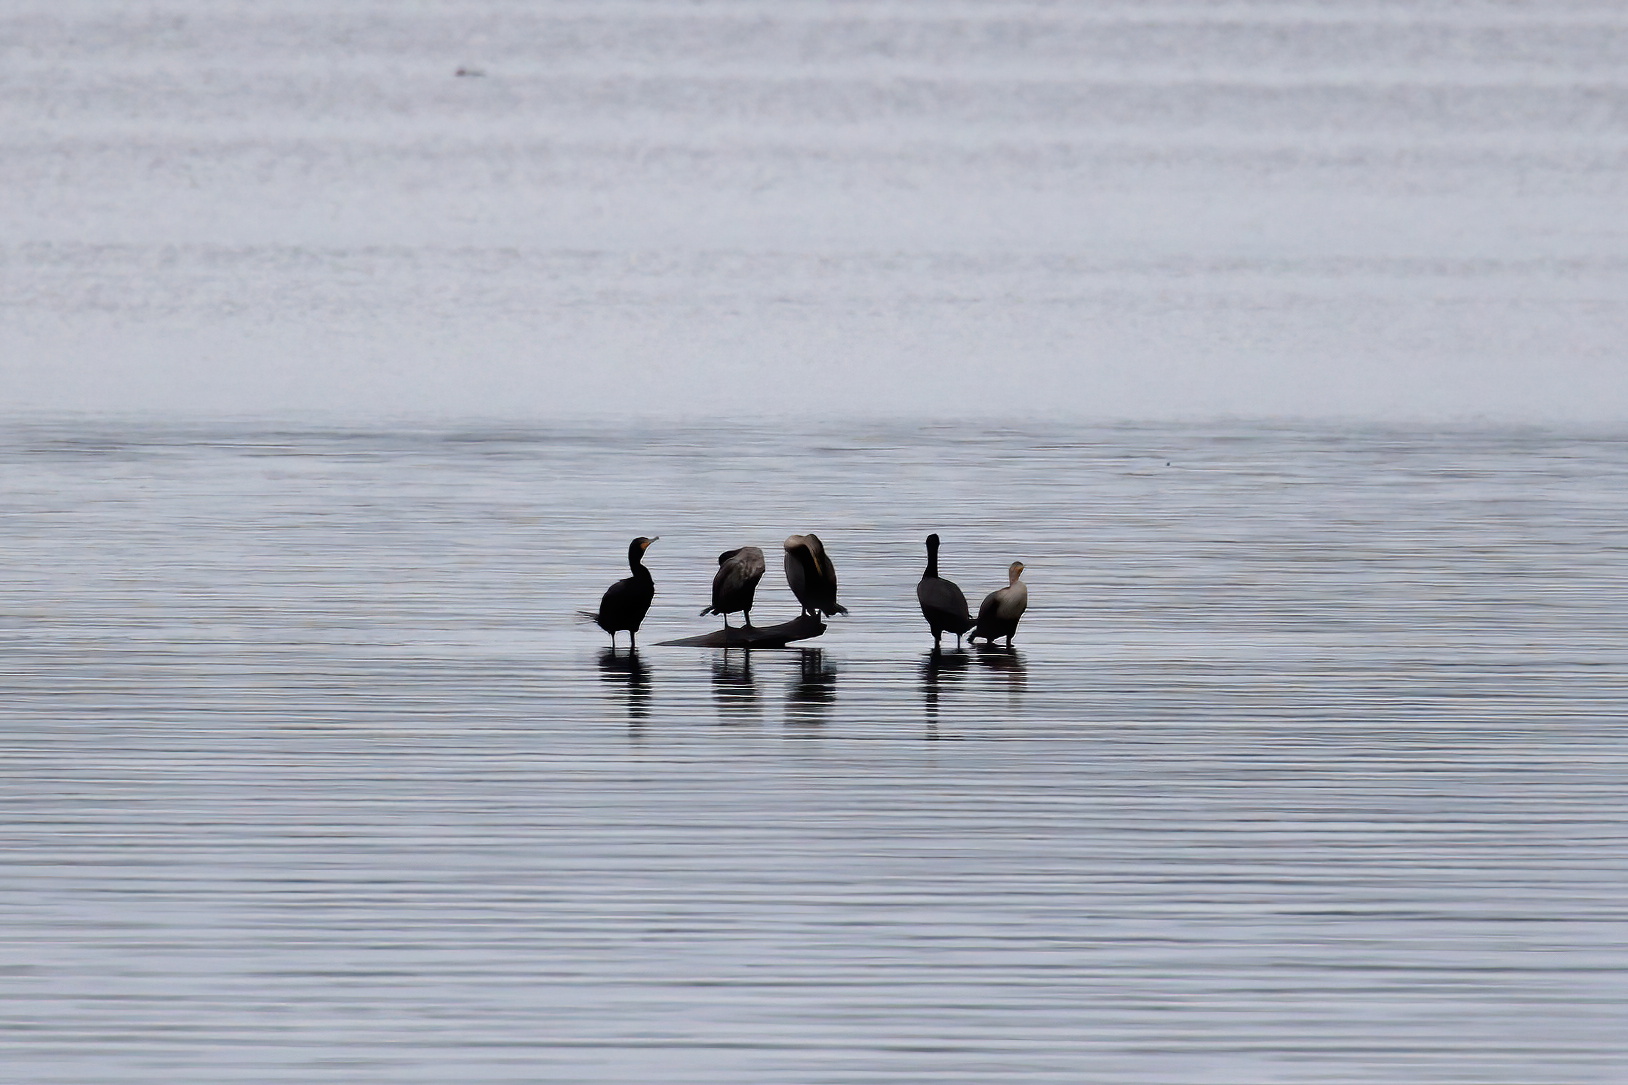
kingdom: Animalia
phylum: Chordata
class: Aves
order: Suliformes
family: Phalacrocoracidae
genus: Phalacrocorax
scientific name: Phalacrocorax auritus
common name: Double-crested cormorant
